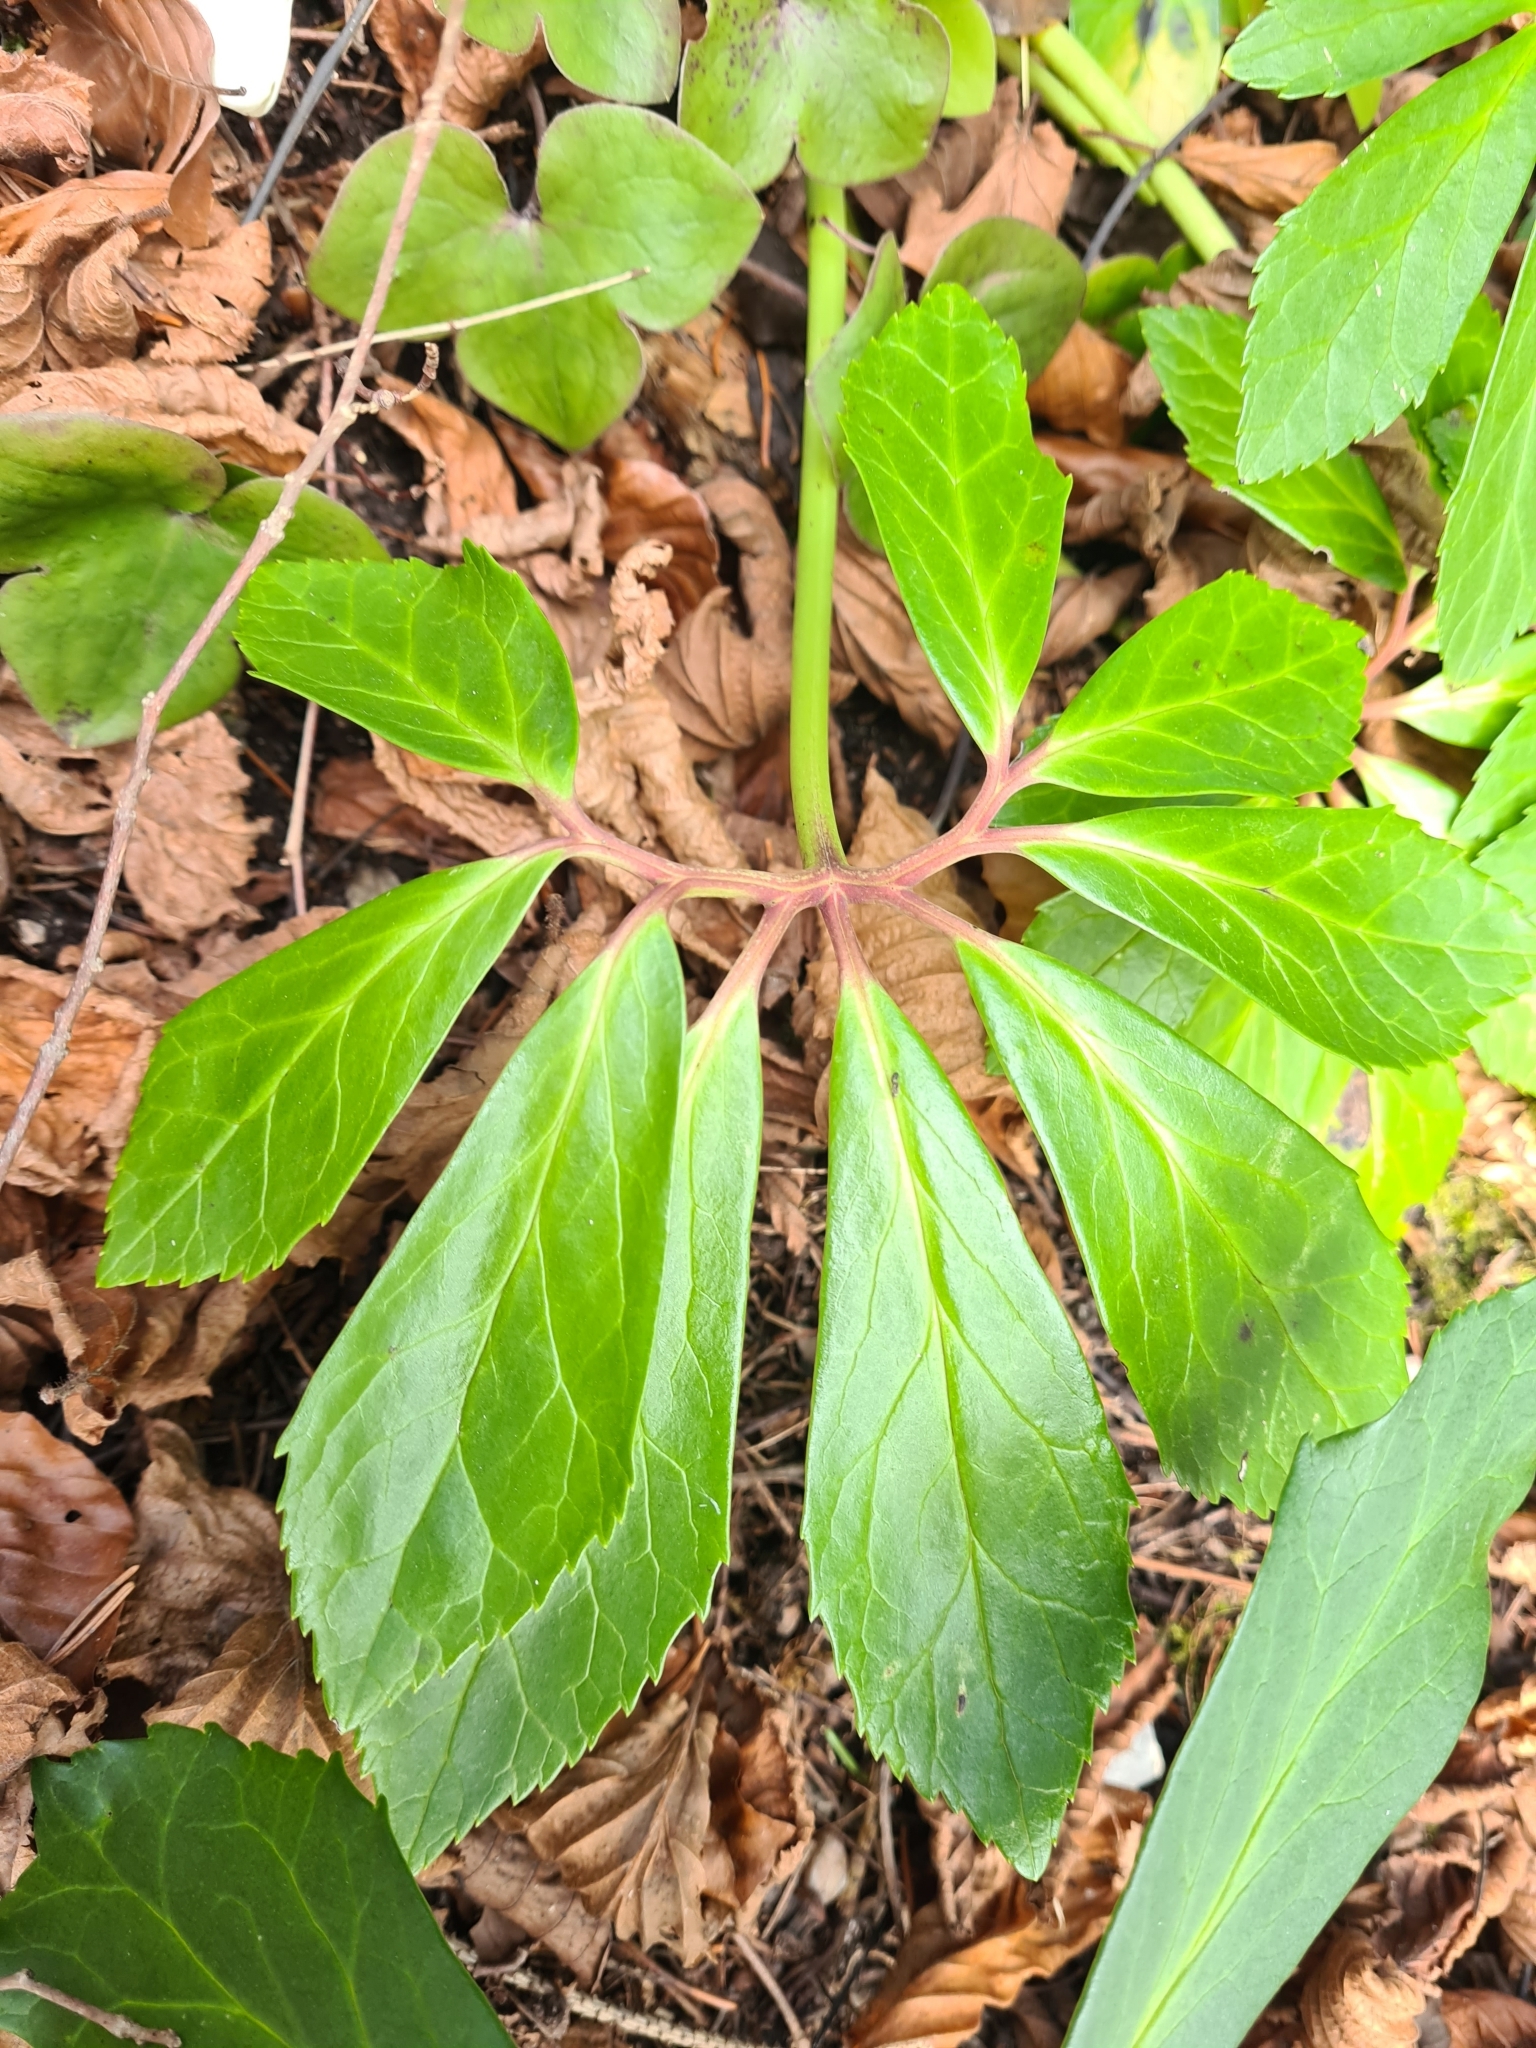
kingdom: Plantae
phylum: Tracheophyta
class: Magnoliopsida
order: Ranunculales
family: Ranunculaceae
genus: Helleborus
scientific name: Helleborus niger
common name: Black hellebore
